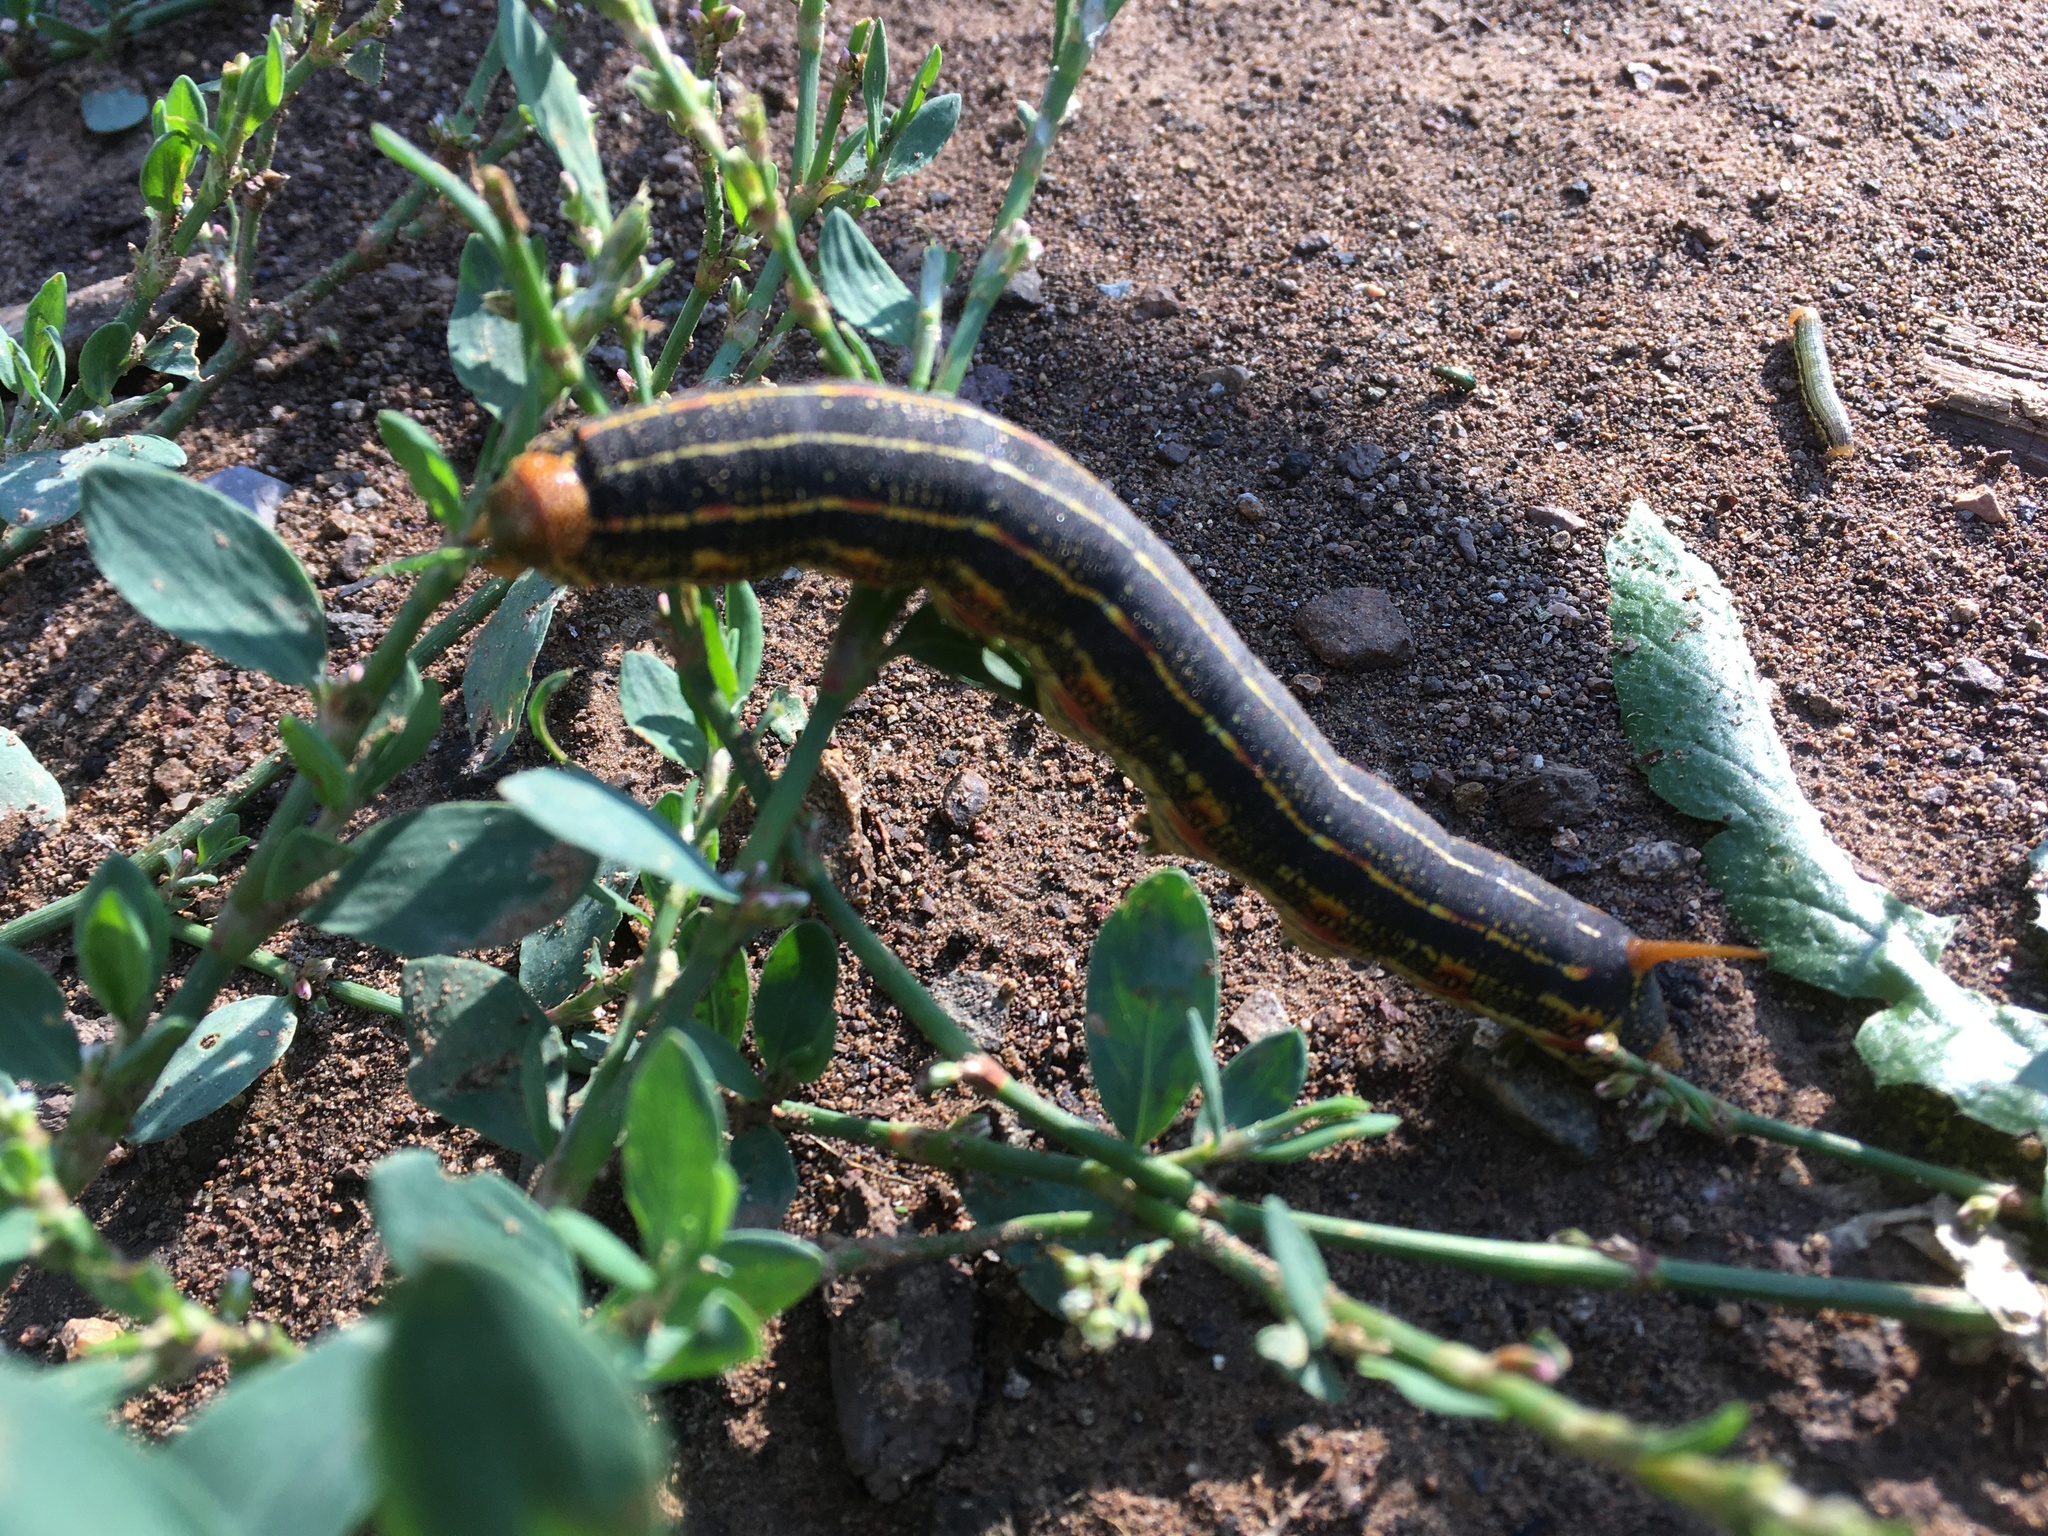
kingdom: Animalia
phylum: Arthropoda
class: Insecta
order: Lepidoptera
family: Sphingidae
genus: Hyles
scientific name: Hyles lineata
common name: White-lined sphinx
